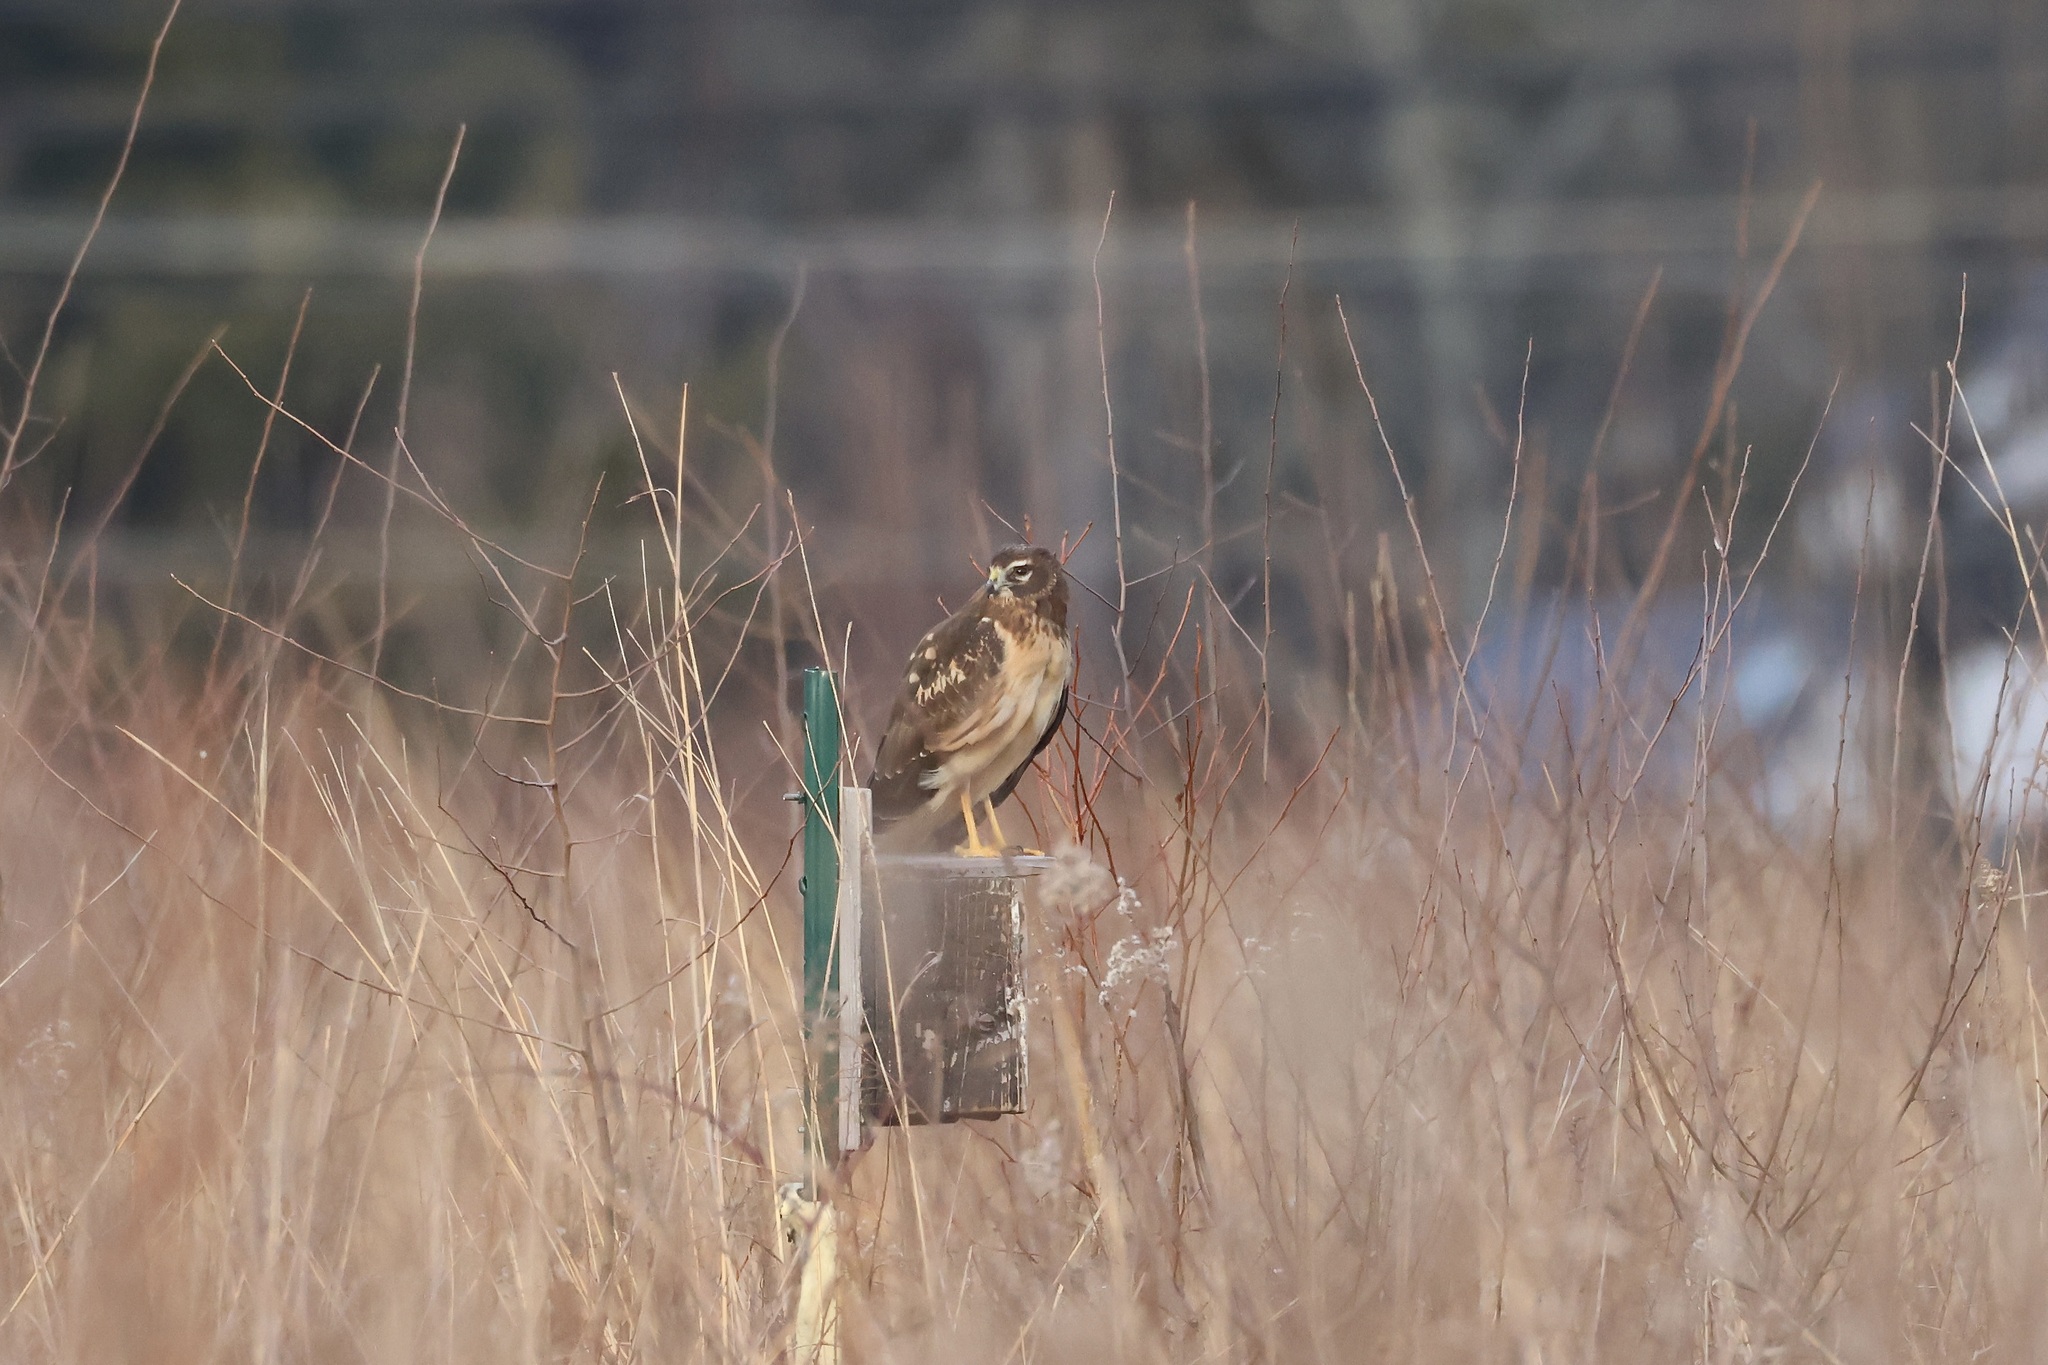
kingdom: Animalia
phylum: Chordata
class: Aves
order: Accipitriformes
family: Accipitridae
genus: Circus
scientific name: Circus cyaneus
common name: Hen harrier
